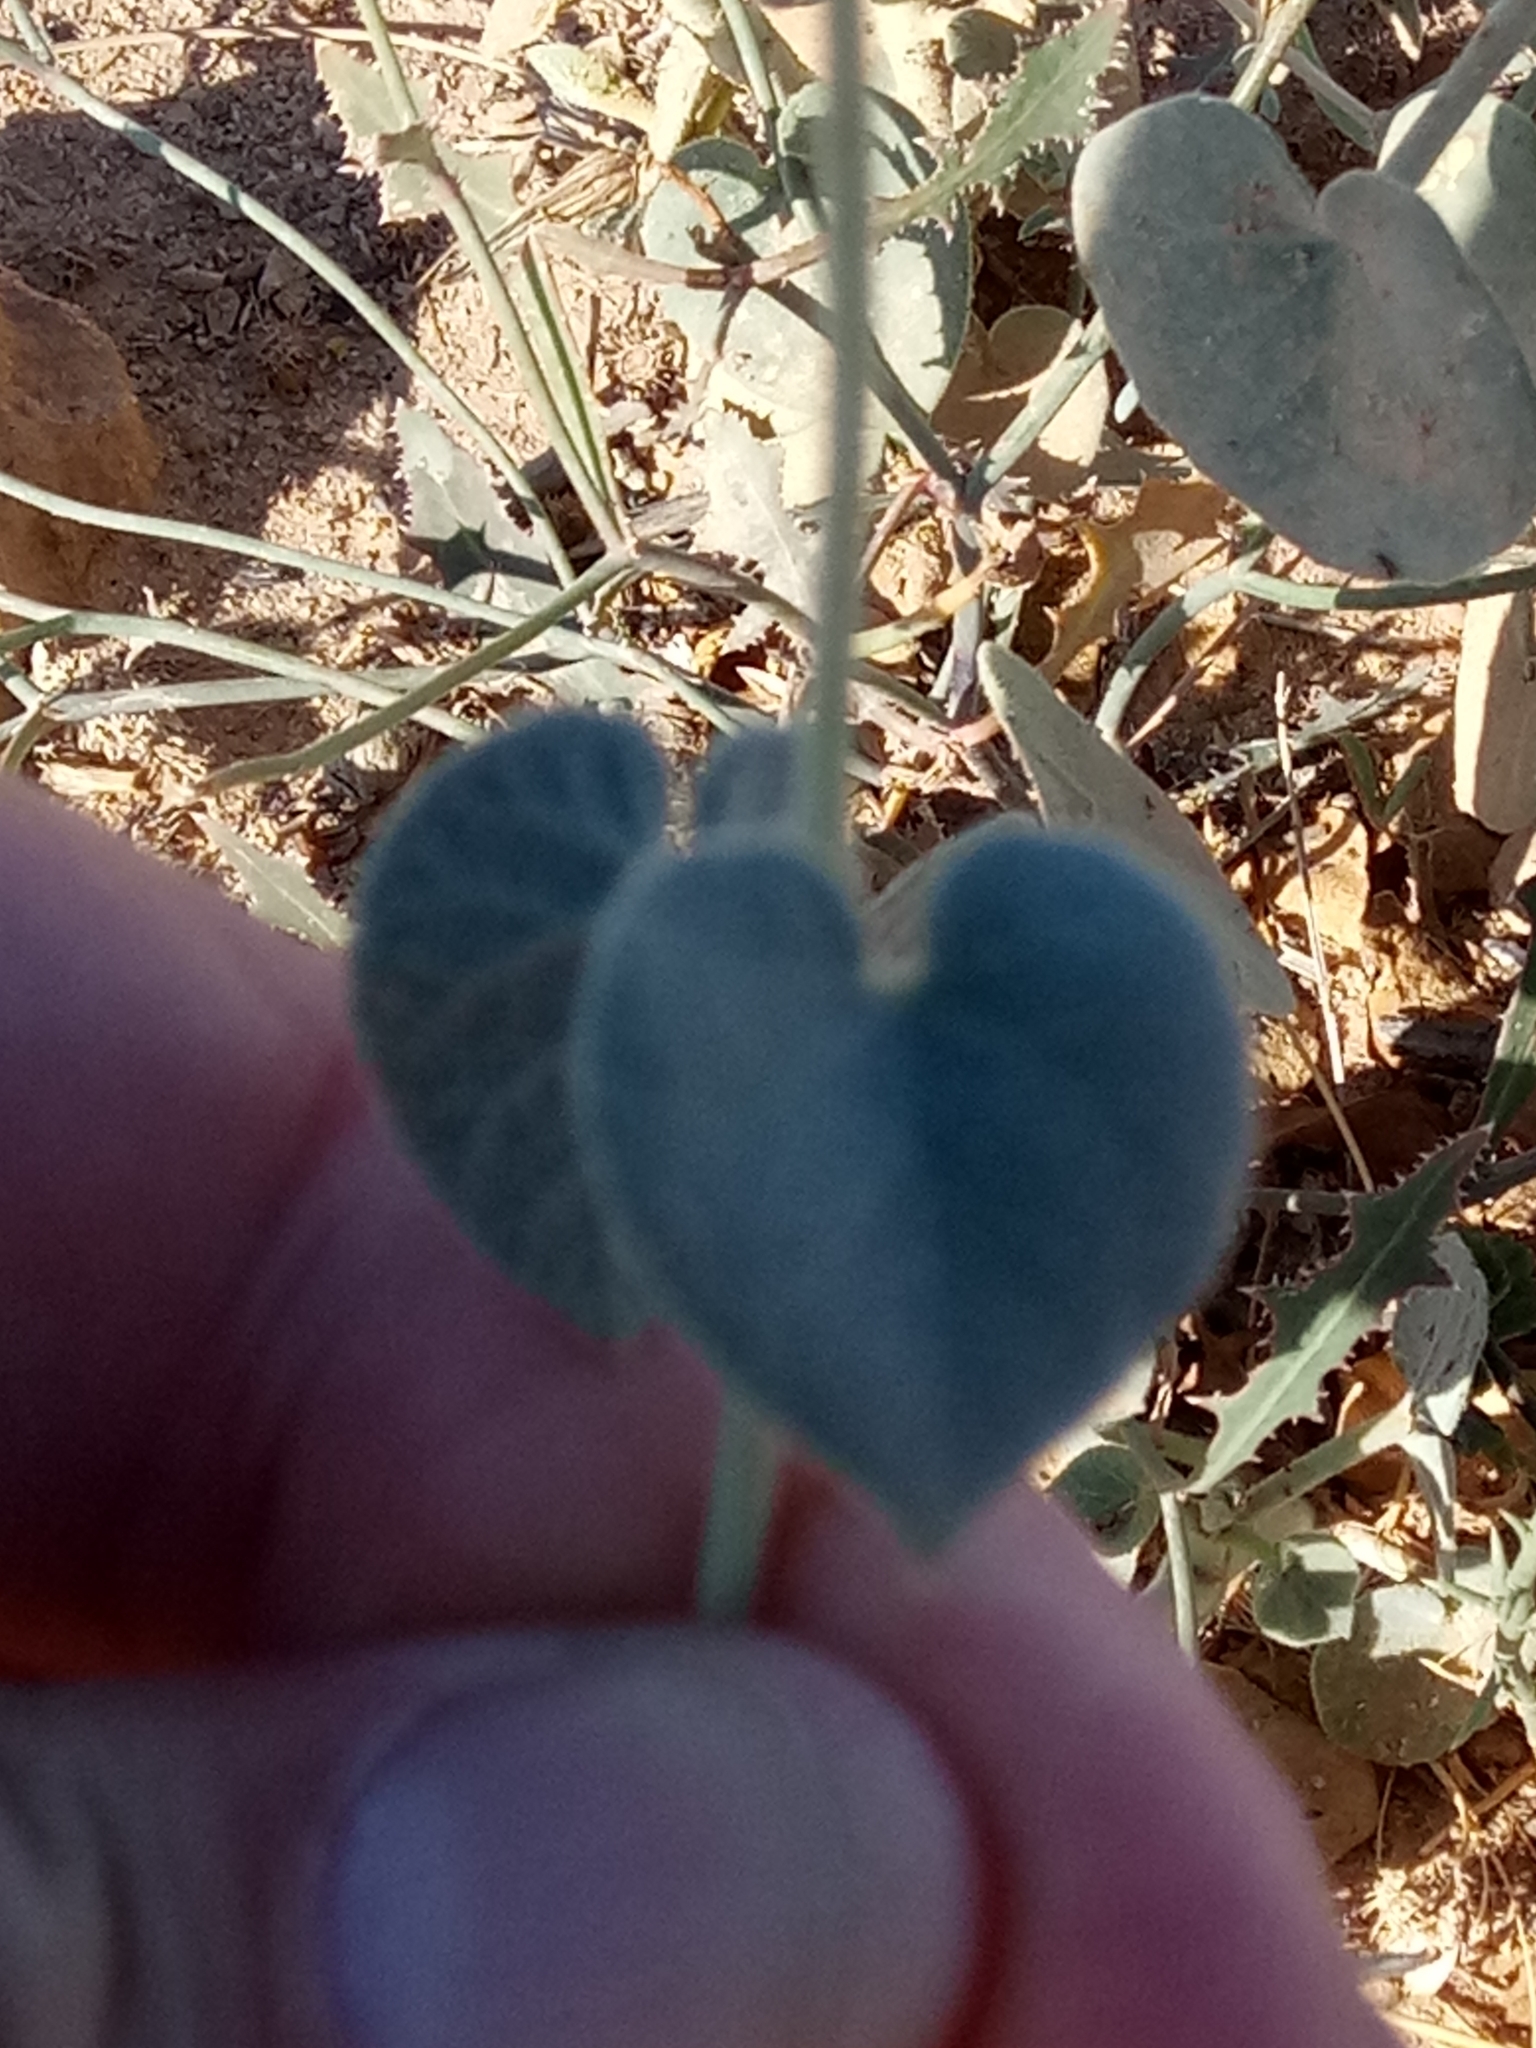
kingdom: Plantae
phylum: Tracheophyta
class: Magnoliopsida
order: Gentianales
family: Apocynaceae
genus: Pergularia
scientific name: Pergularia tomentosa
